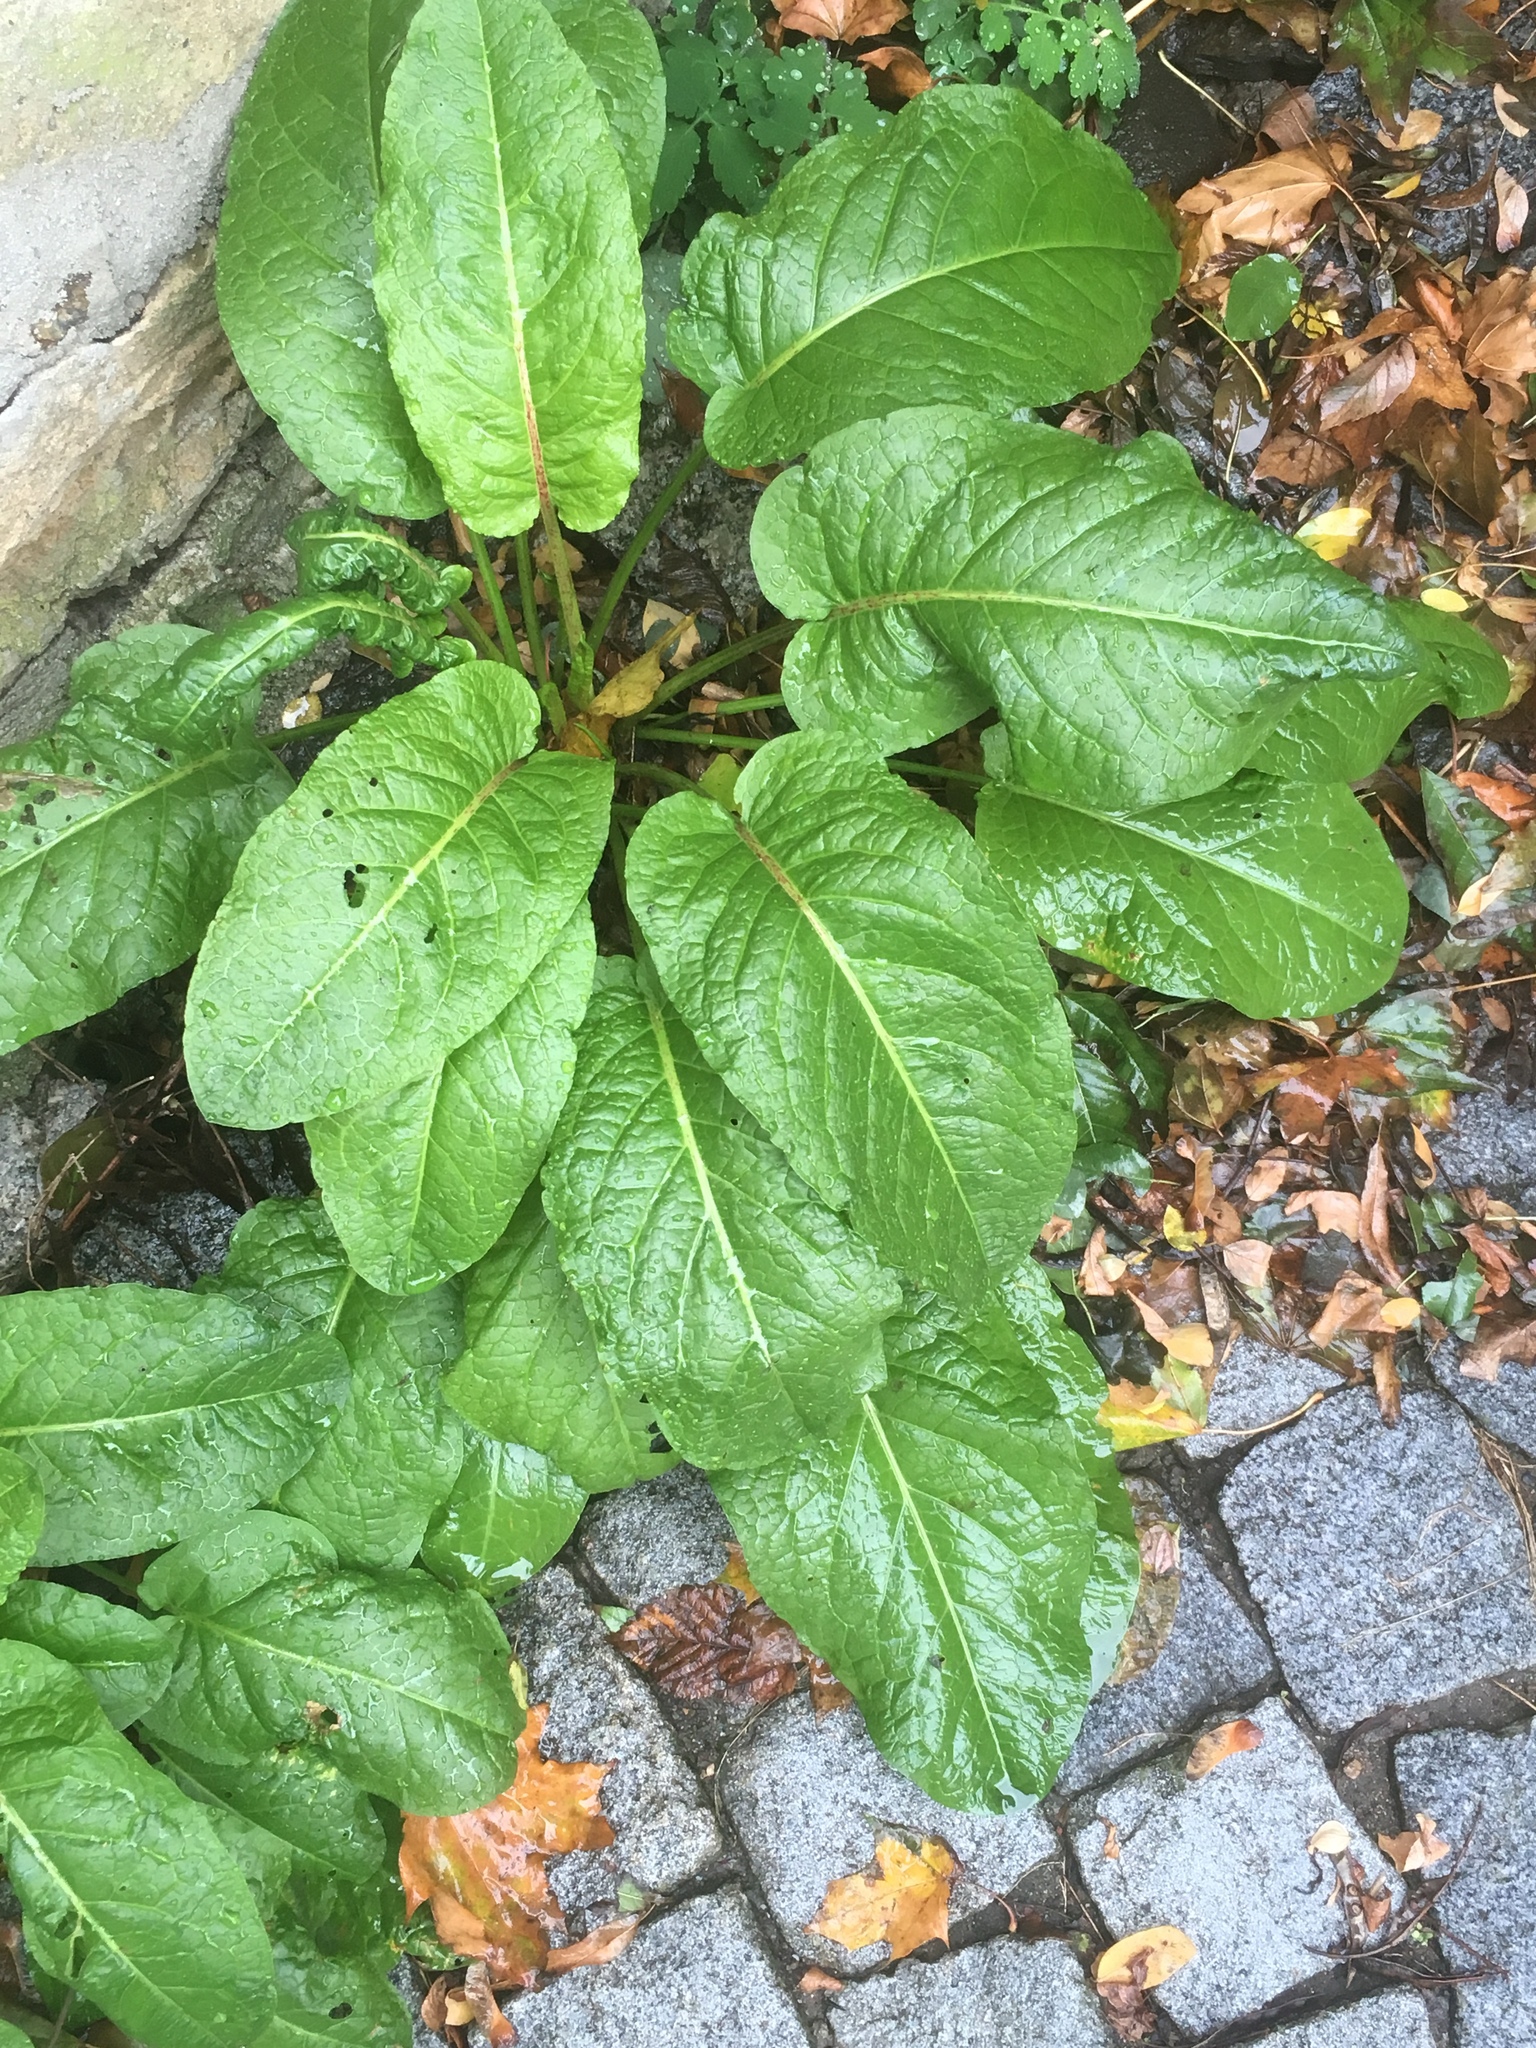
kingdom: Plantae
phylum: Tracheophyta
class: Magnoliopsida
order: Caryophyllales
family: Polygonaceae
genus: Rumex
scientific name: Rumex obtusifolius
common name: Bitter dock
